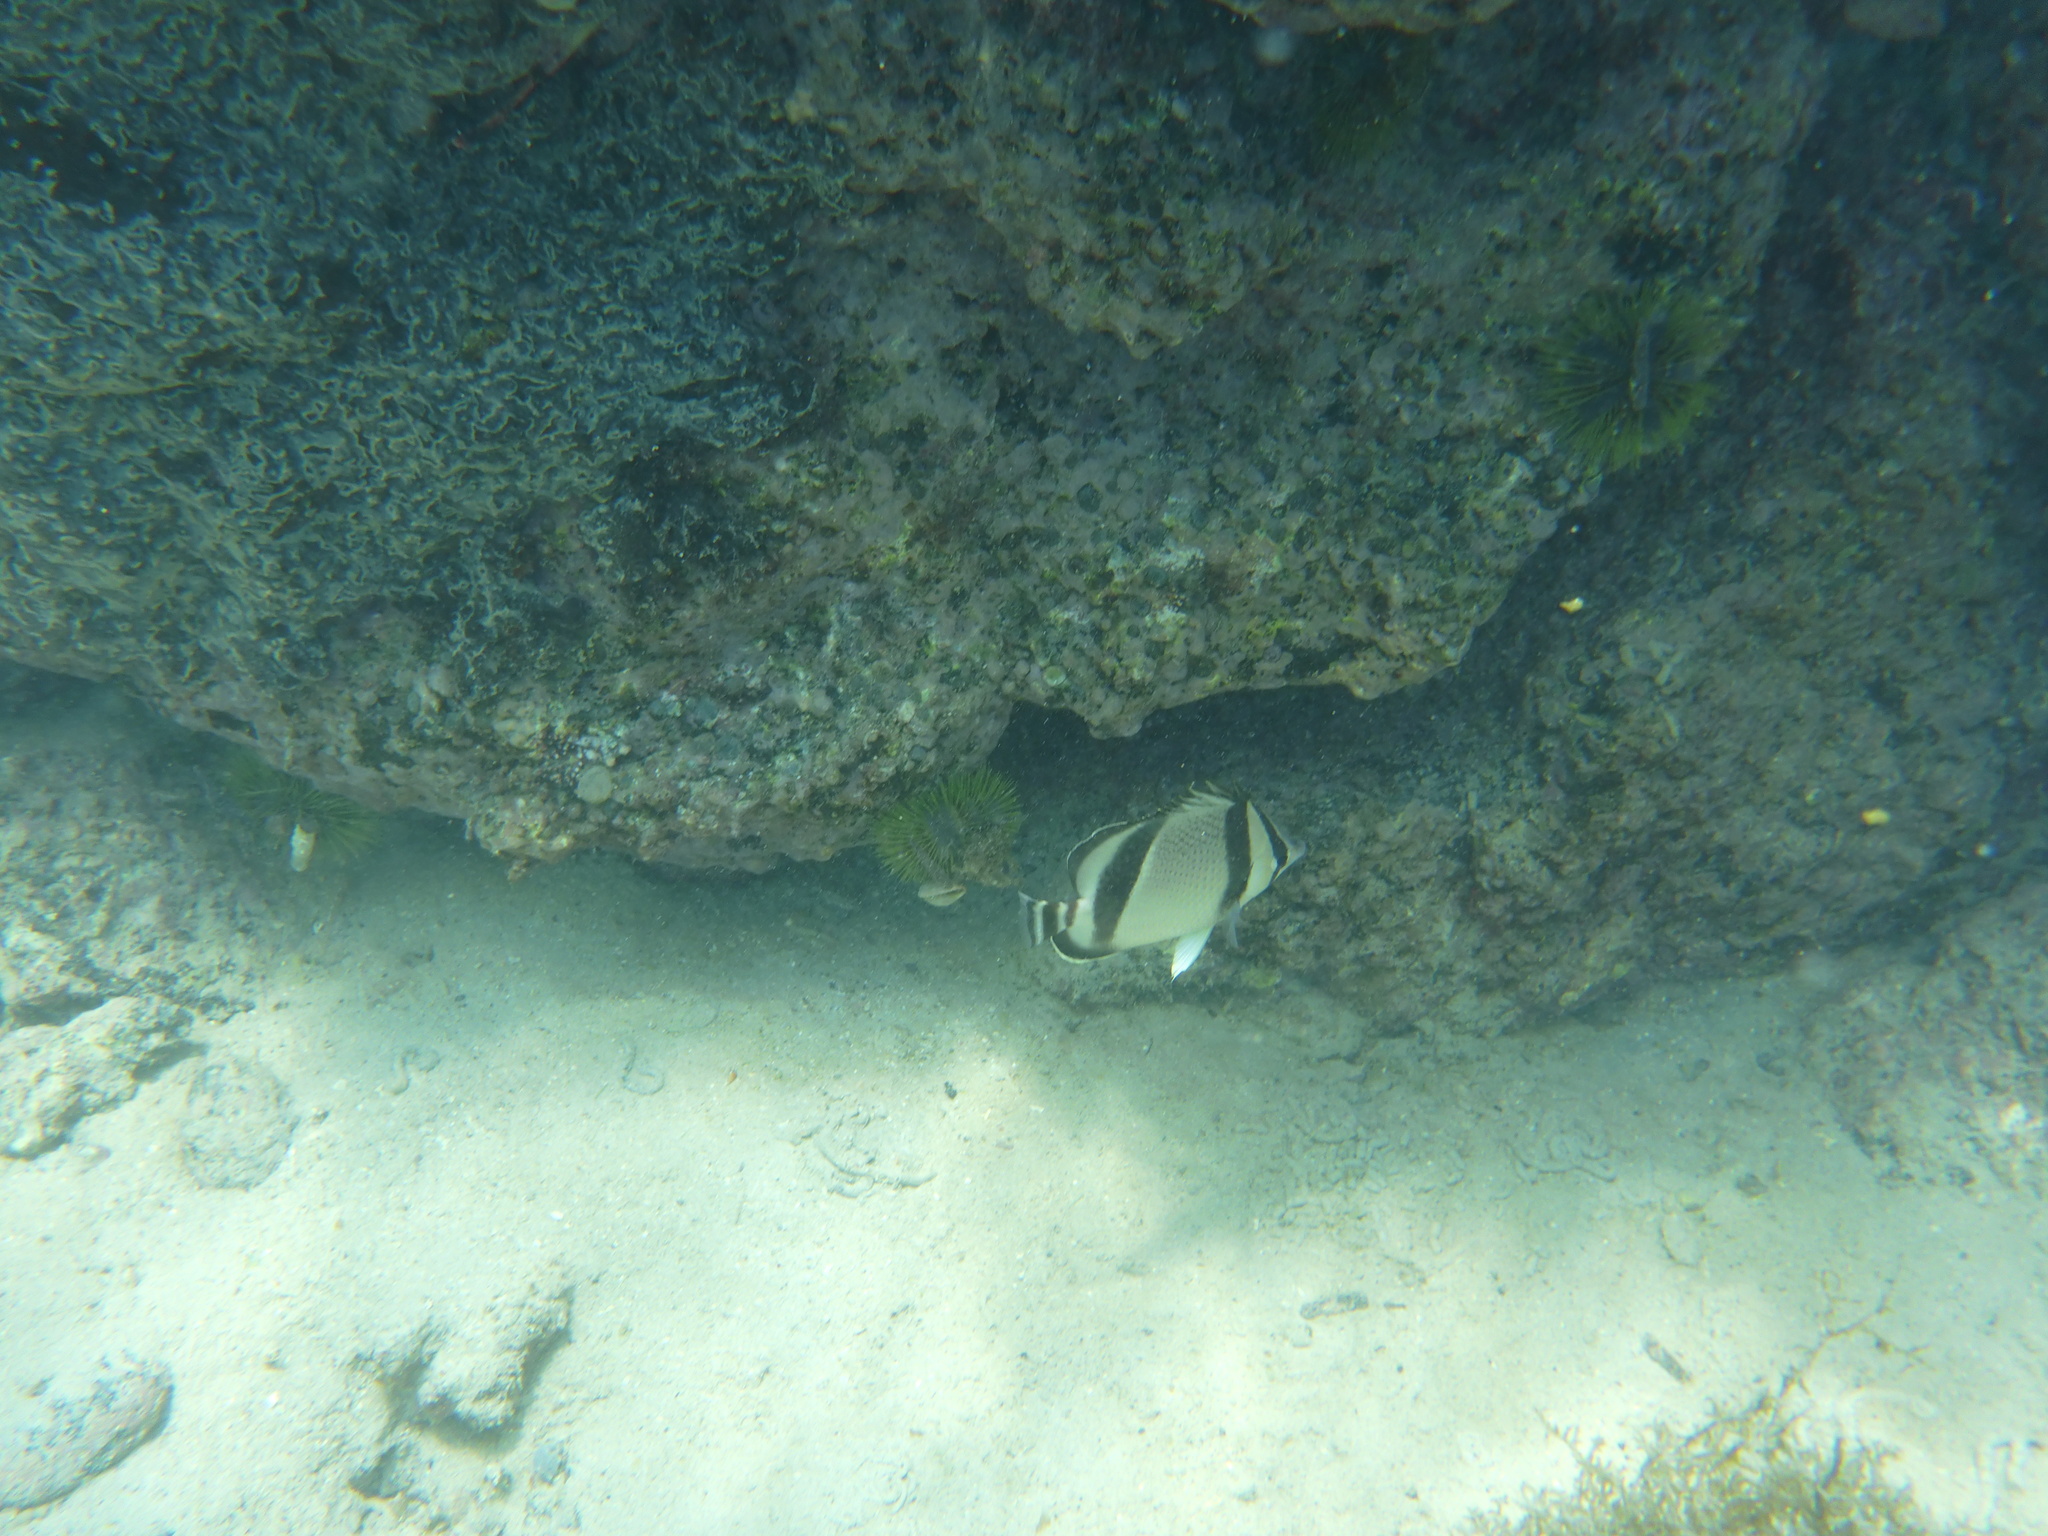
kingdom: Animalia
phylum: Chordata
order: Perciformes
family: Chaetodontidae
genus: Chaetodon
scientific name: Chaetodon humeralis
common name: Threebanded butterflyfish
